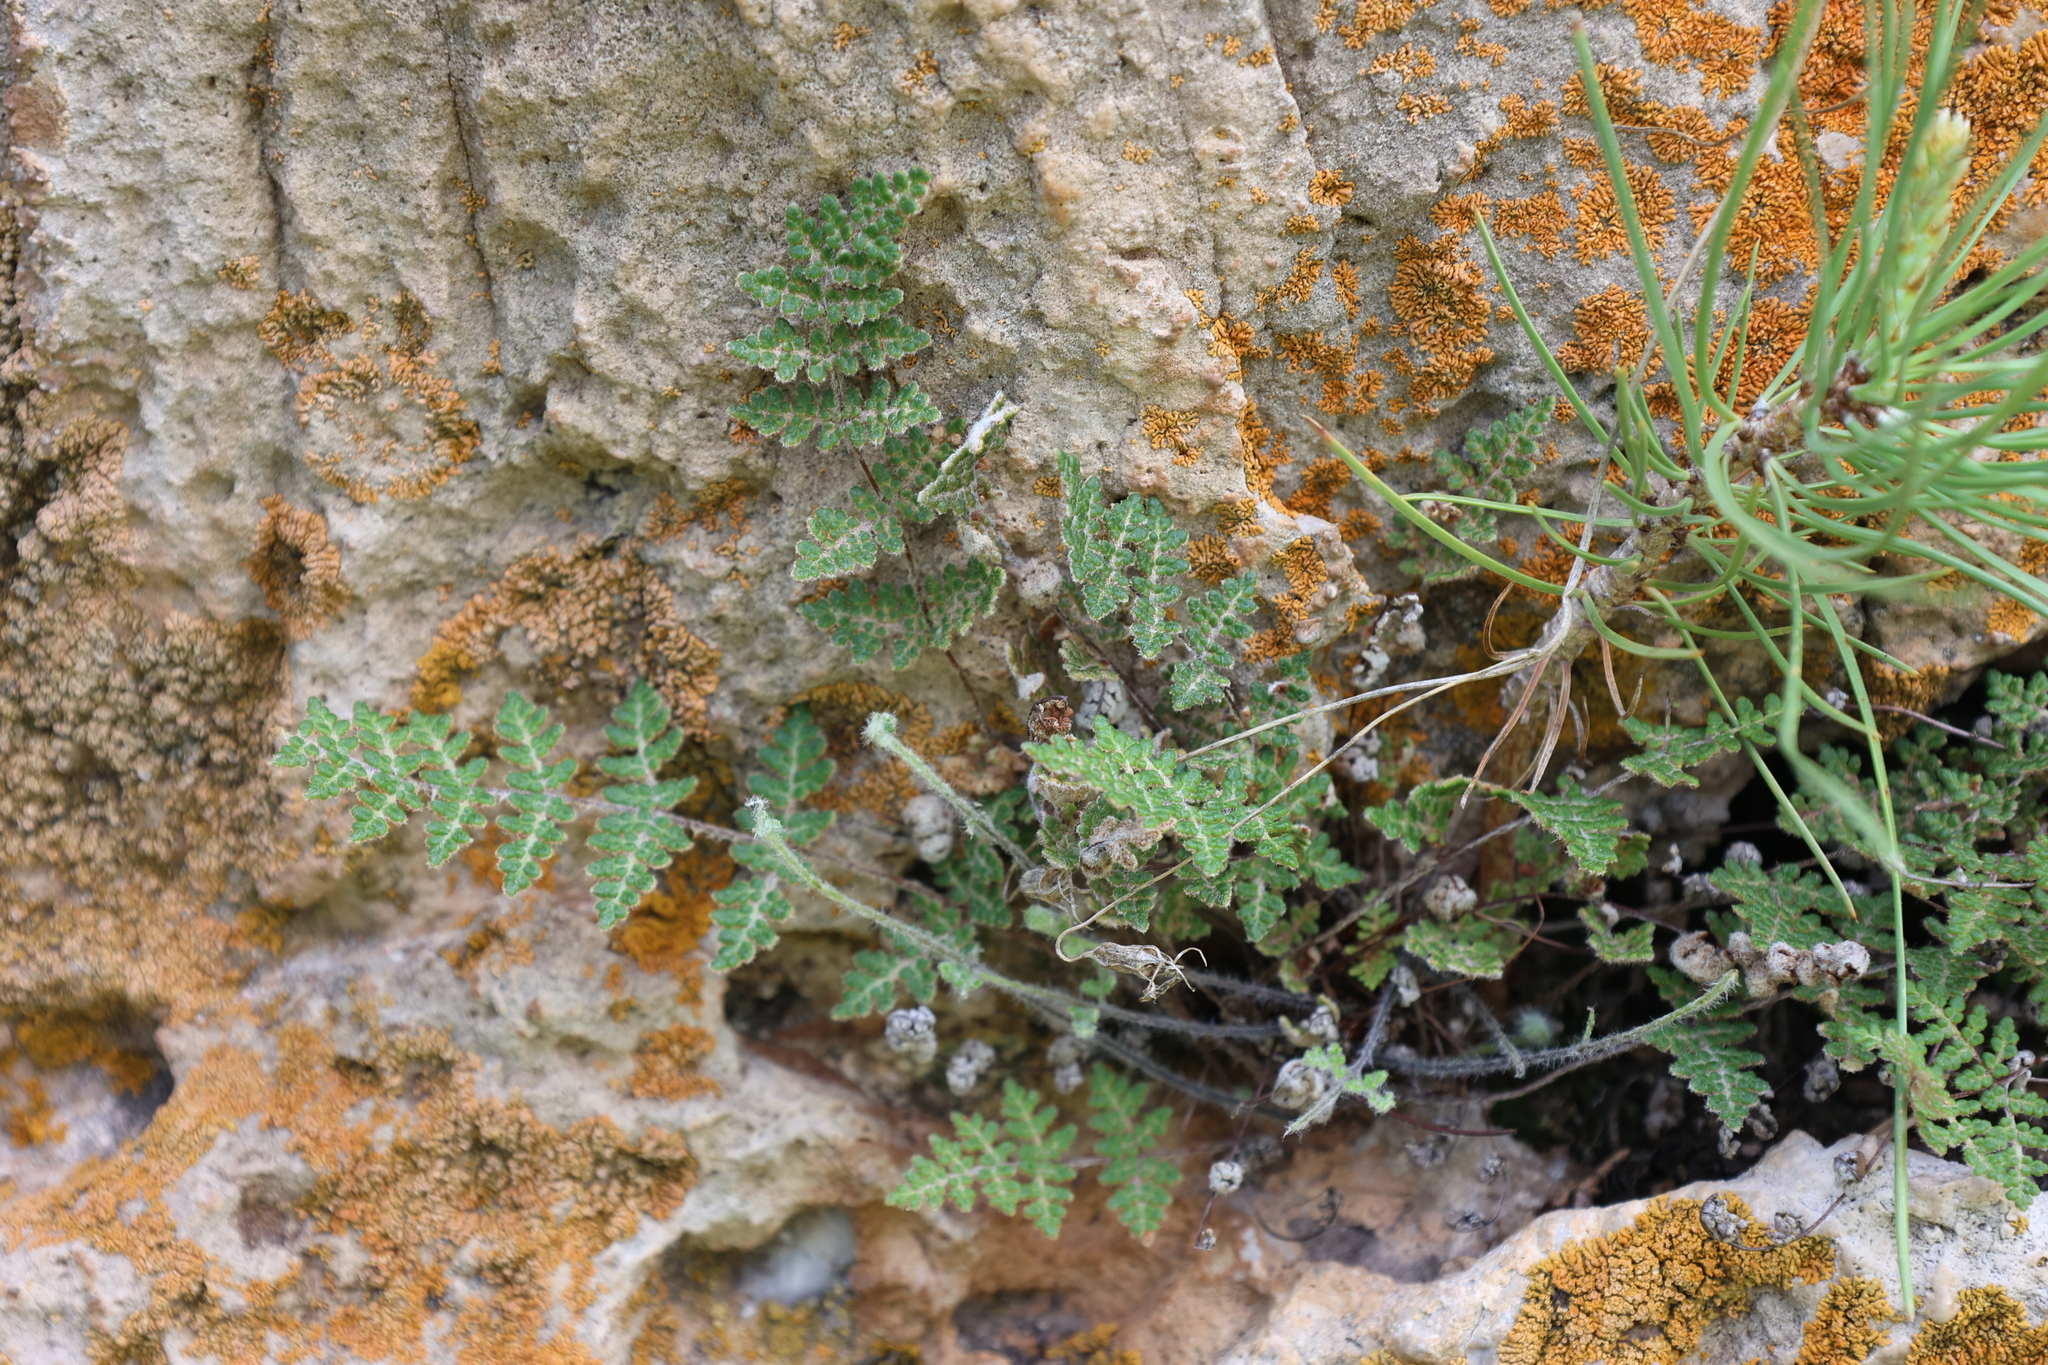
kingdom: Plantae
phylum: Tracheophyta
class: Polypodiopsida
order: Polypodiales
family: Pteridaceae
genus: Myriopteris
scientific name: Myriopteris gracilis
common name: Fee's lip fern
